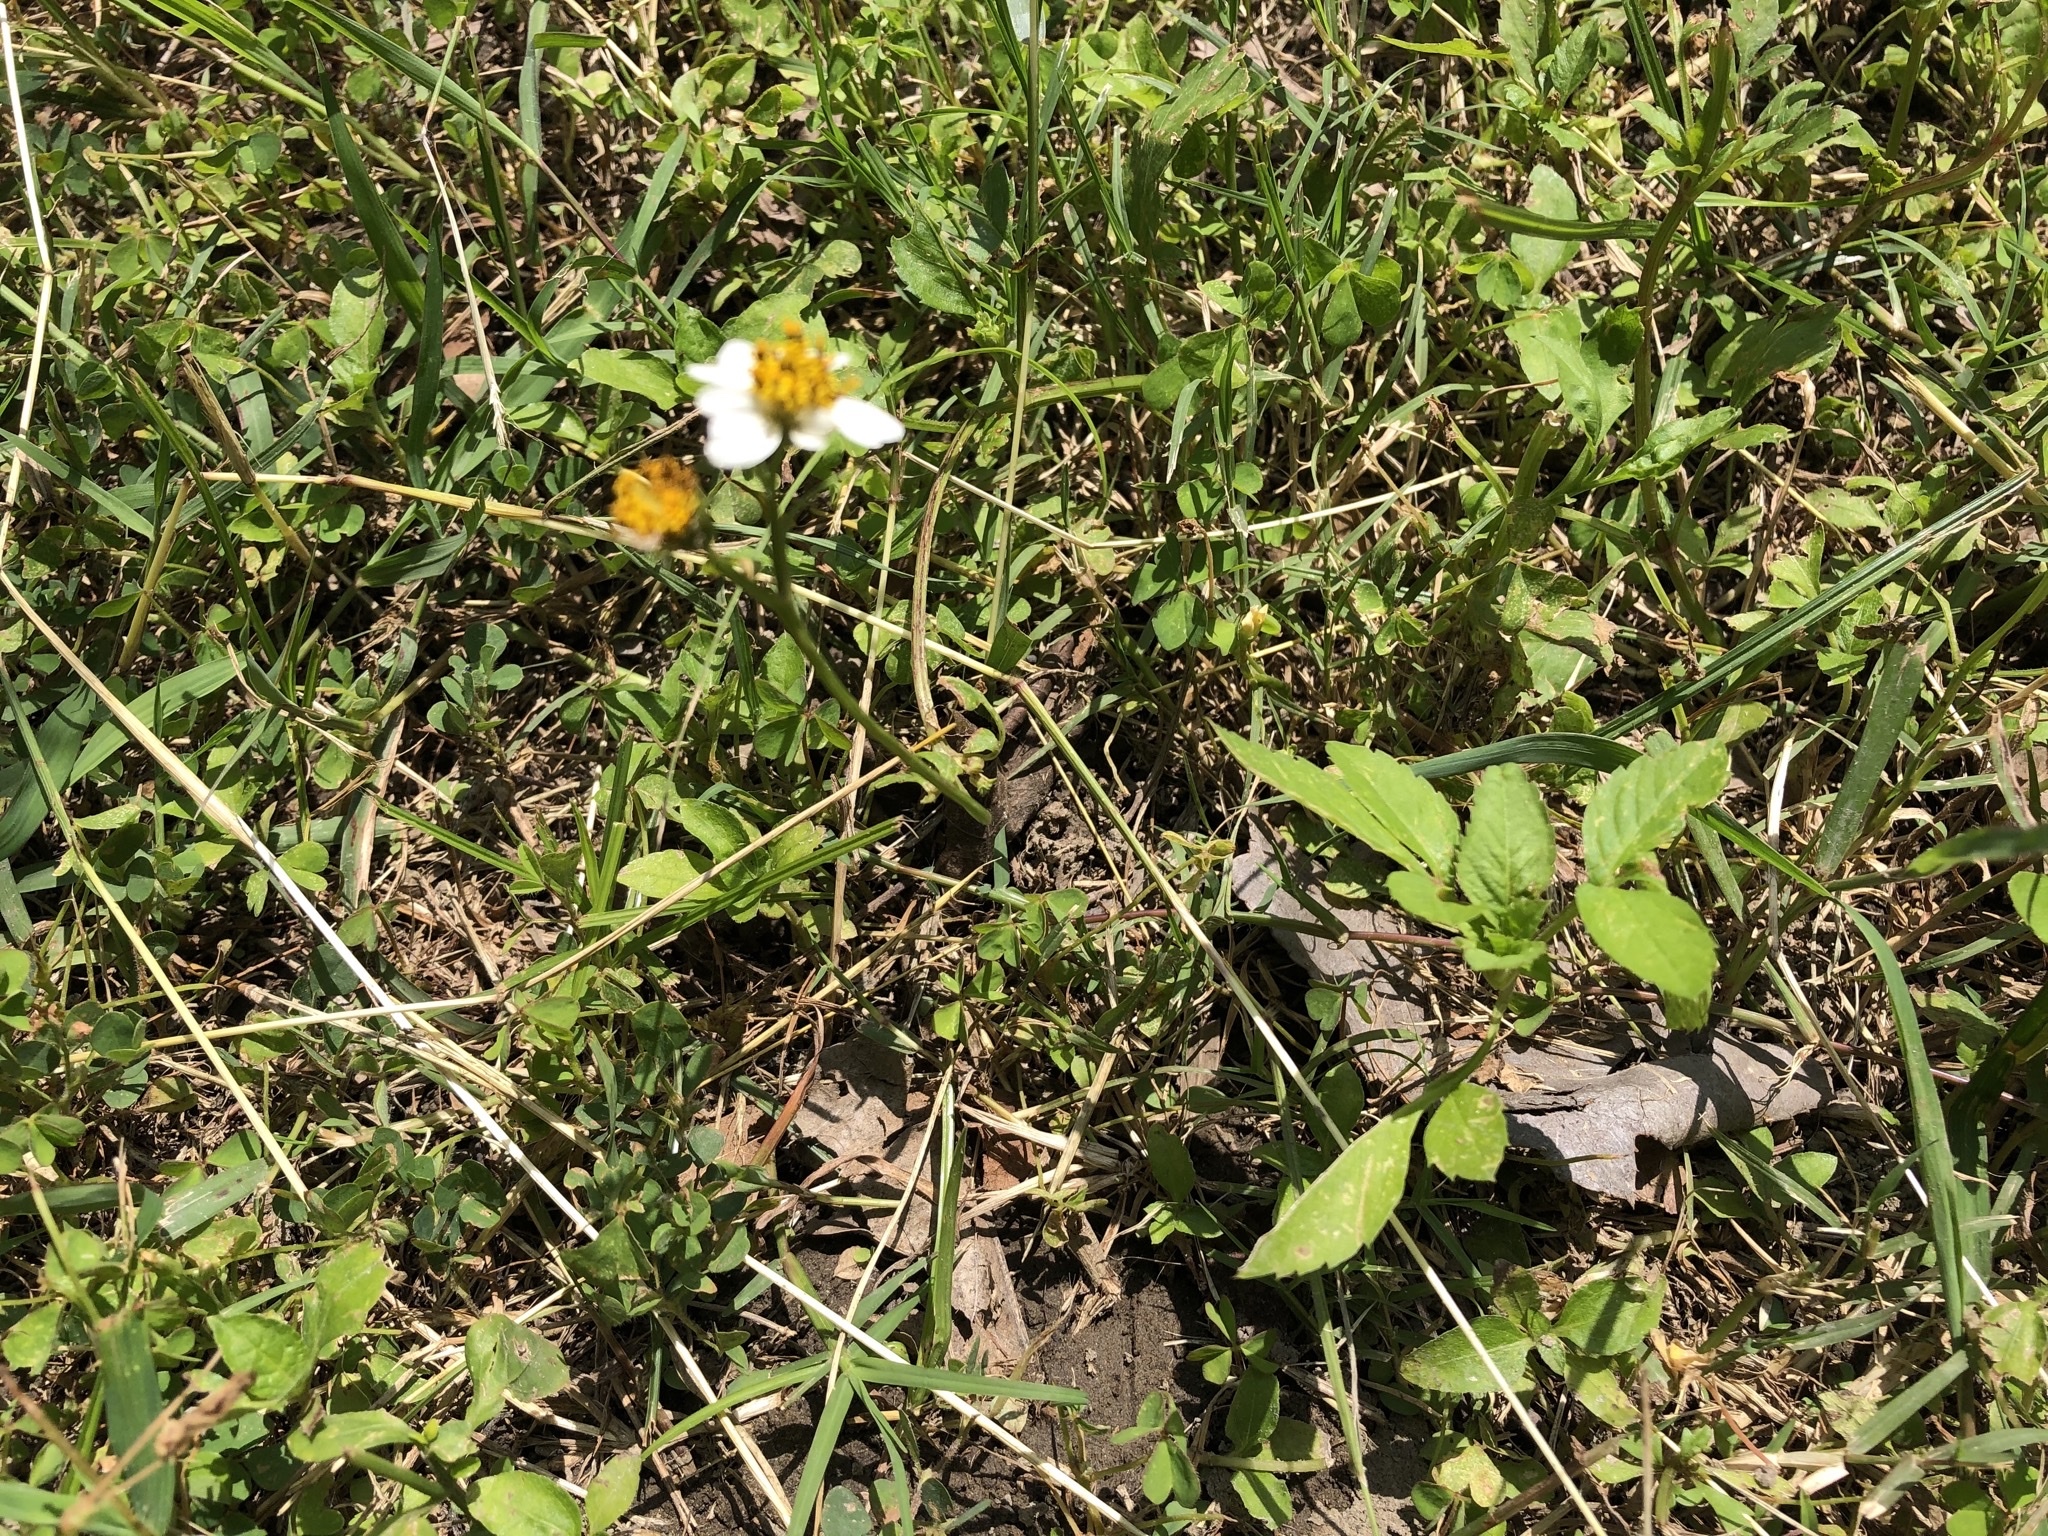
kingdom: Plantae
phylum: Tracheophyta
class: Magnoliopsida
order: Asterales
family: Asteraceae
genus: Bidens
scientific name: Bidens alba
